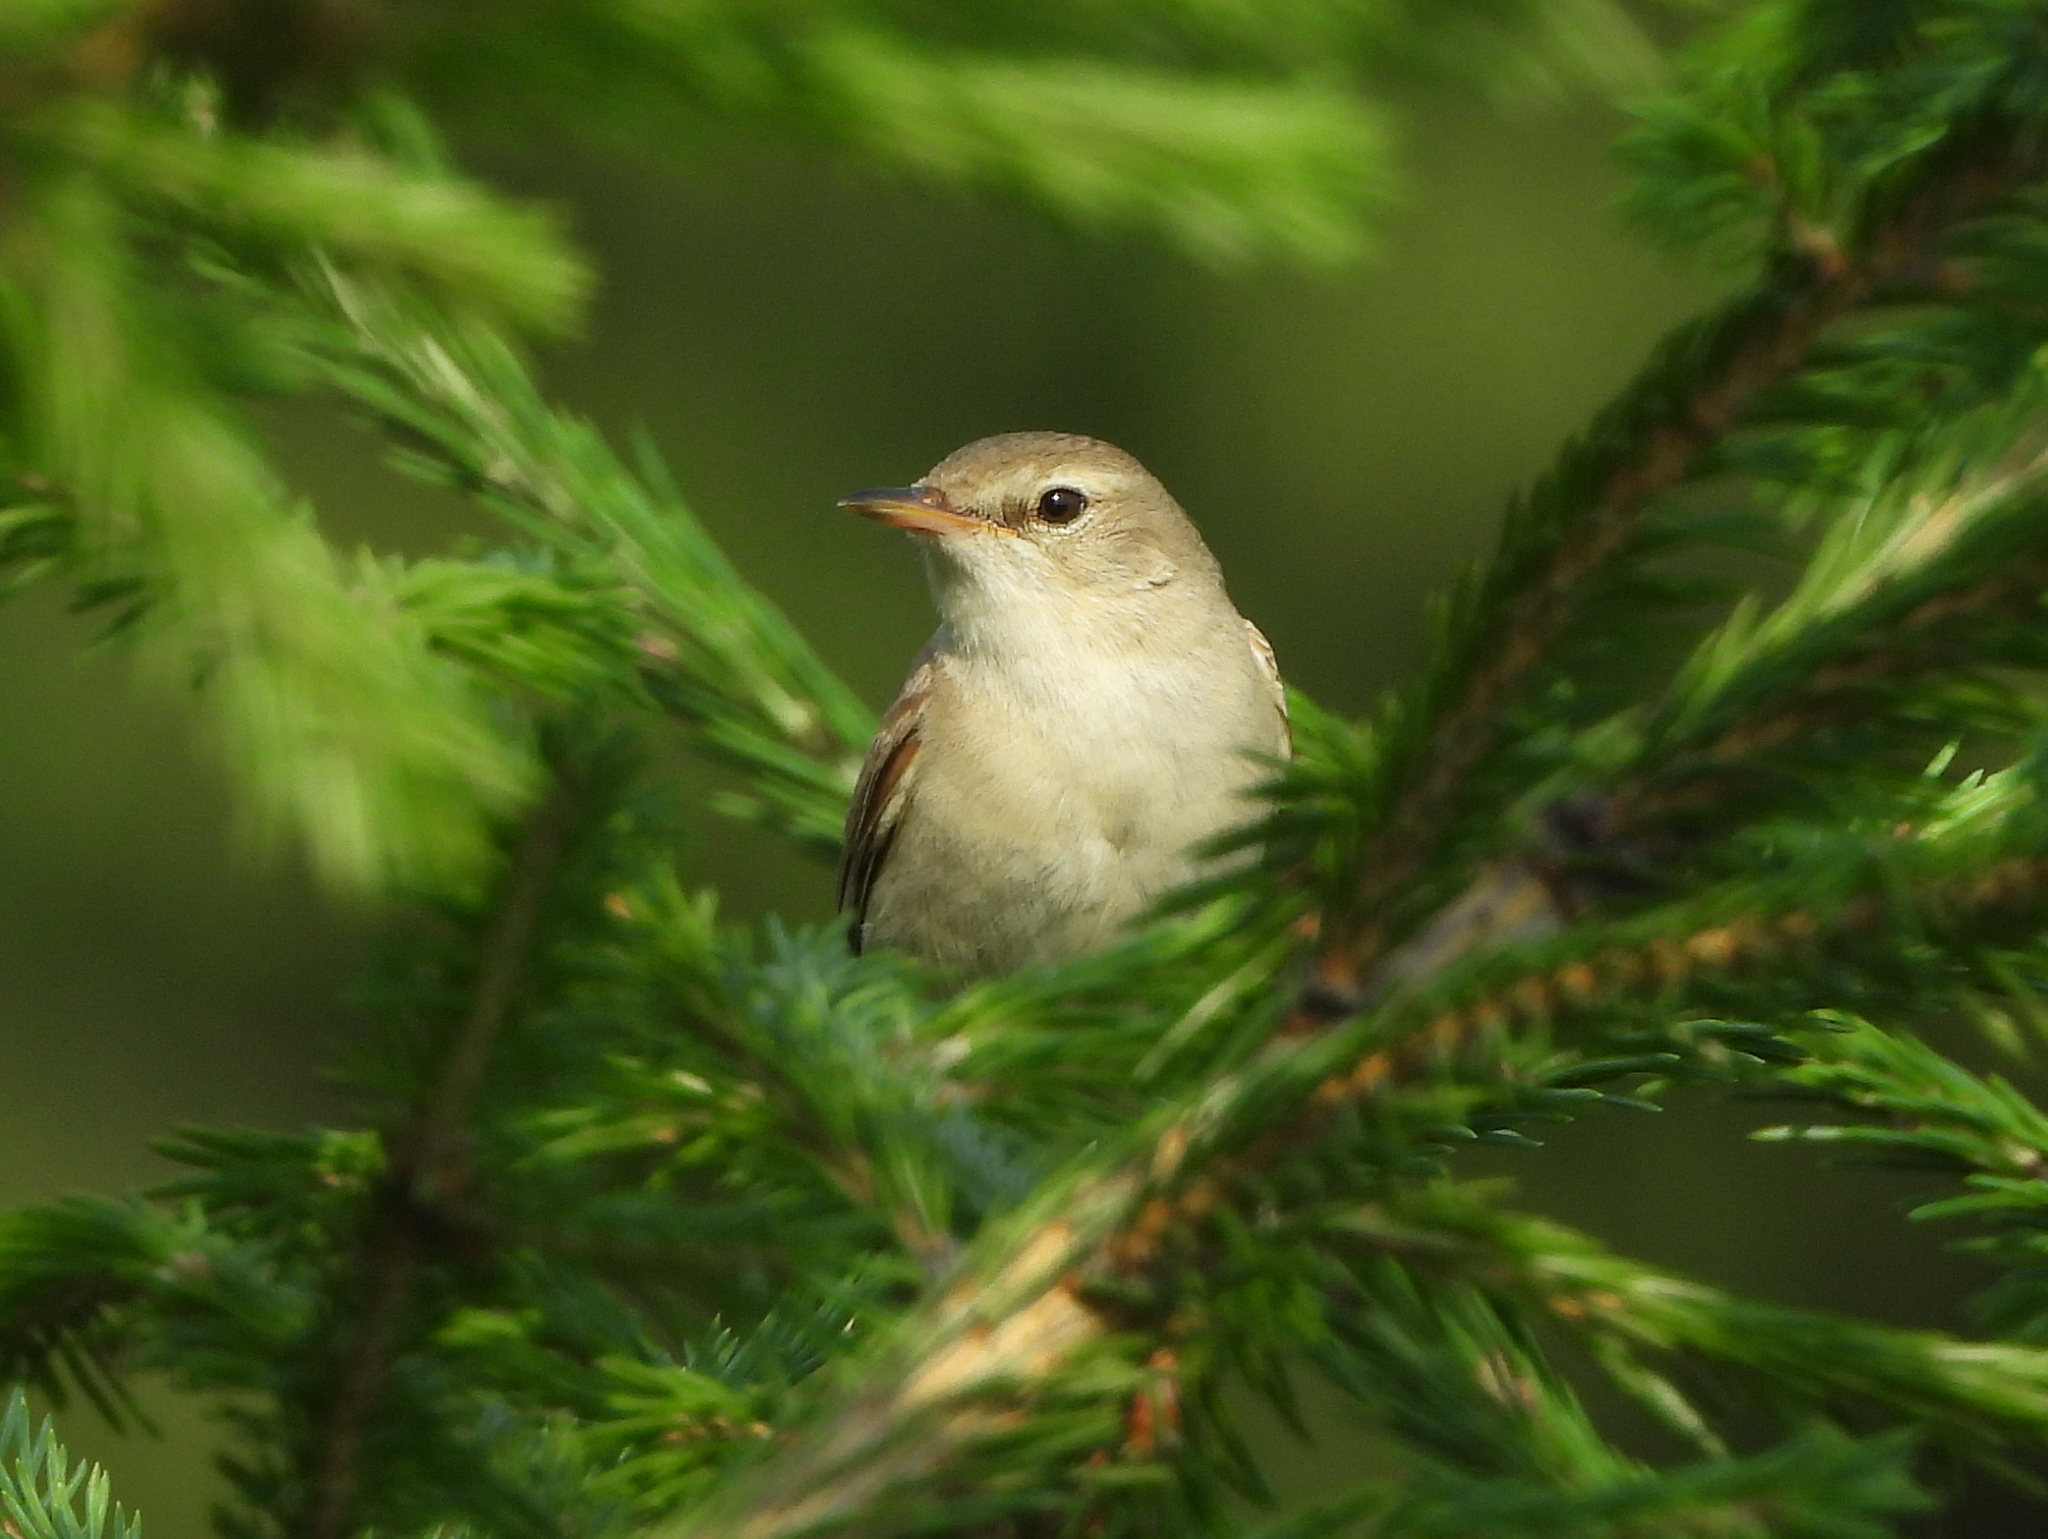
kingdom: Animalia
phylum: Chordata
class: Aves
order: Passeriformes
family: Acrocephalidae
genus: Iduna
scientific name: Iduna caligata
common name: Booted warbler
